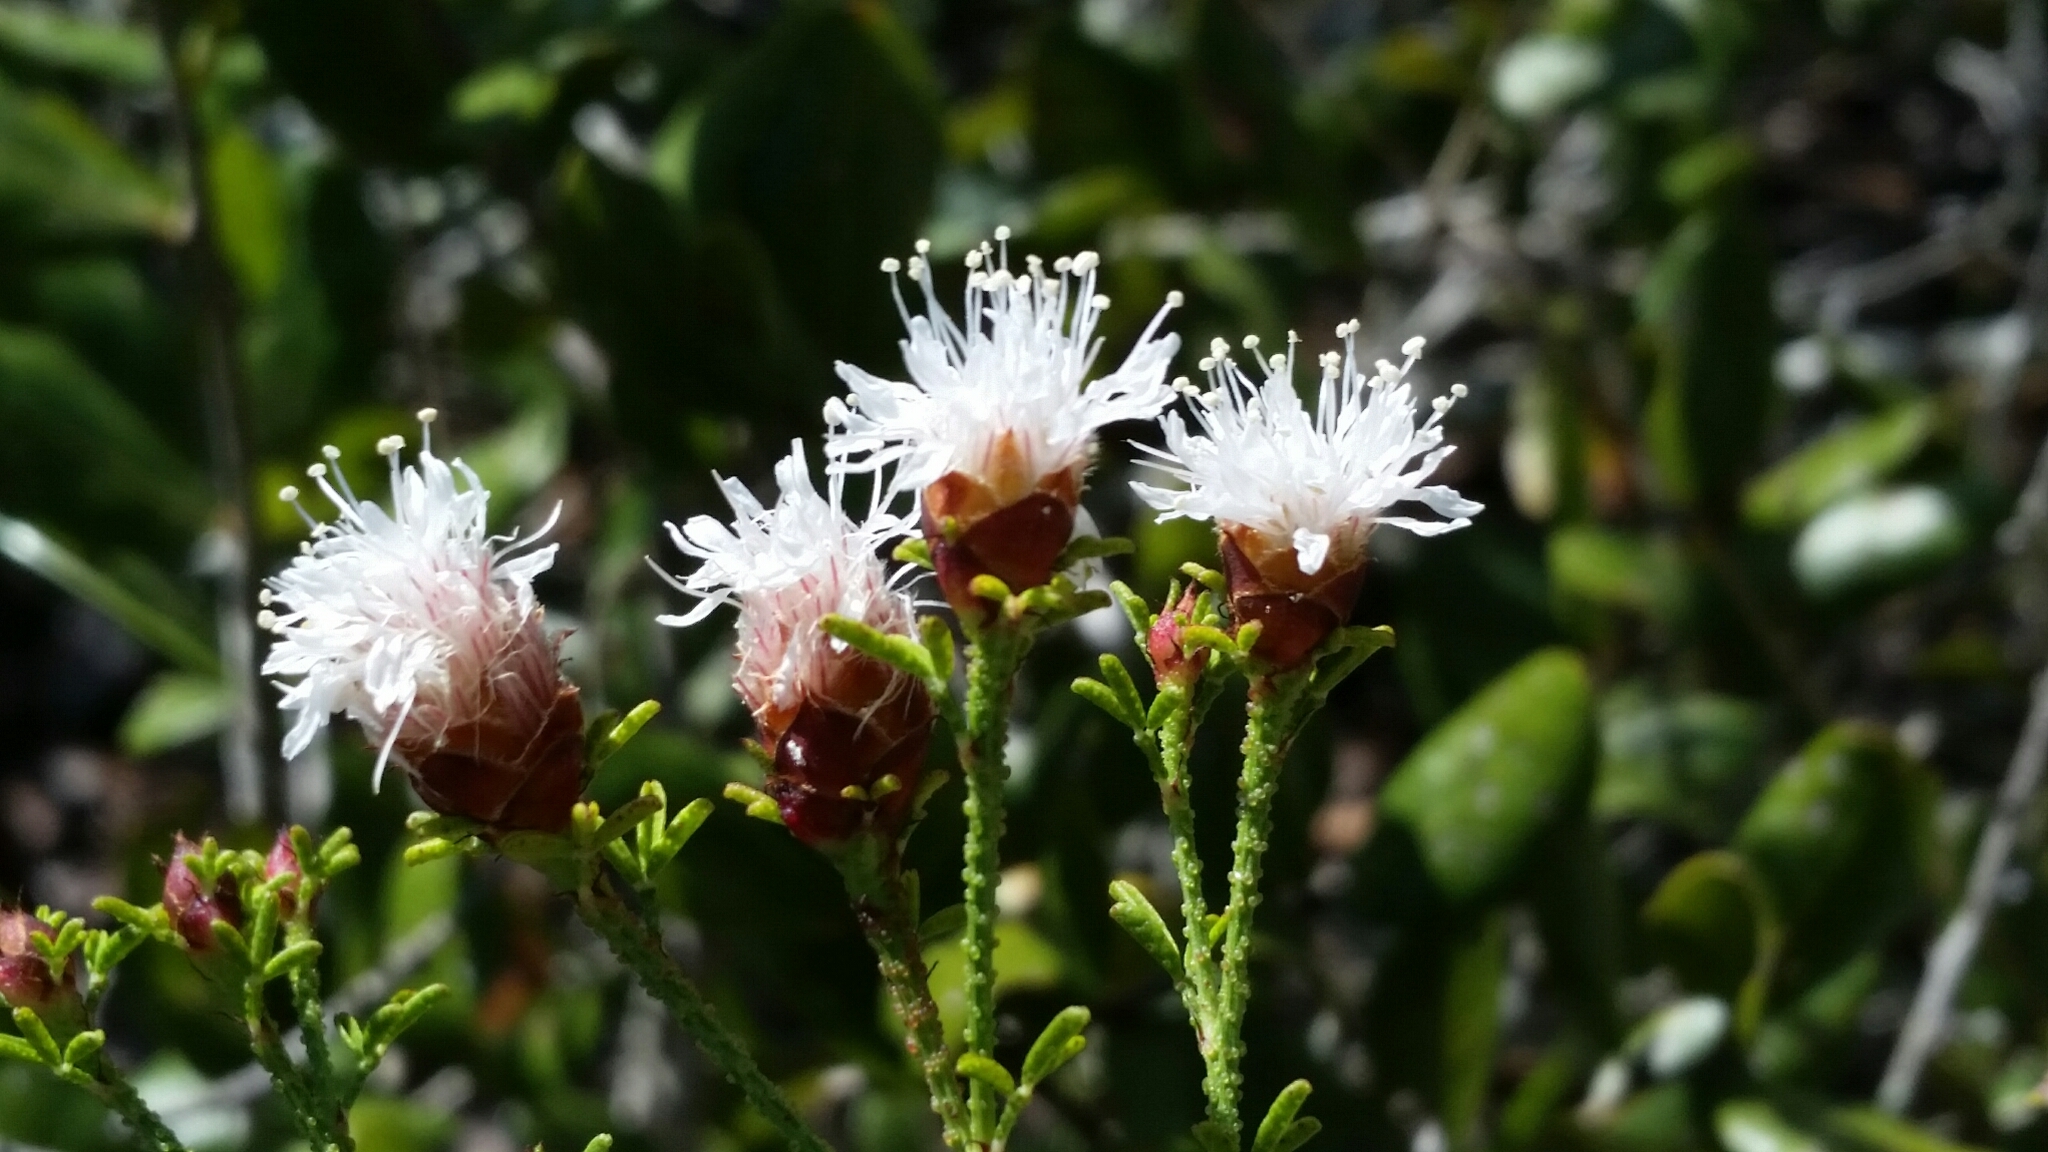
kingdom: Plantae
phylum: Tracheophyta
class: Magnoliopsida
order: Fabales
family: Fabaceae
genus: Dalea
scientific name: Dalea pinnata
